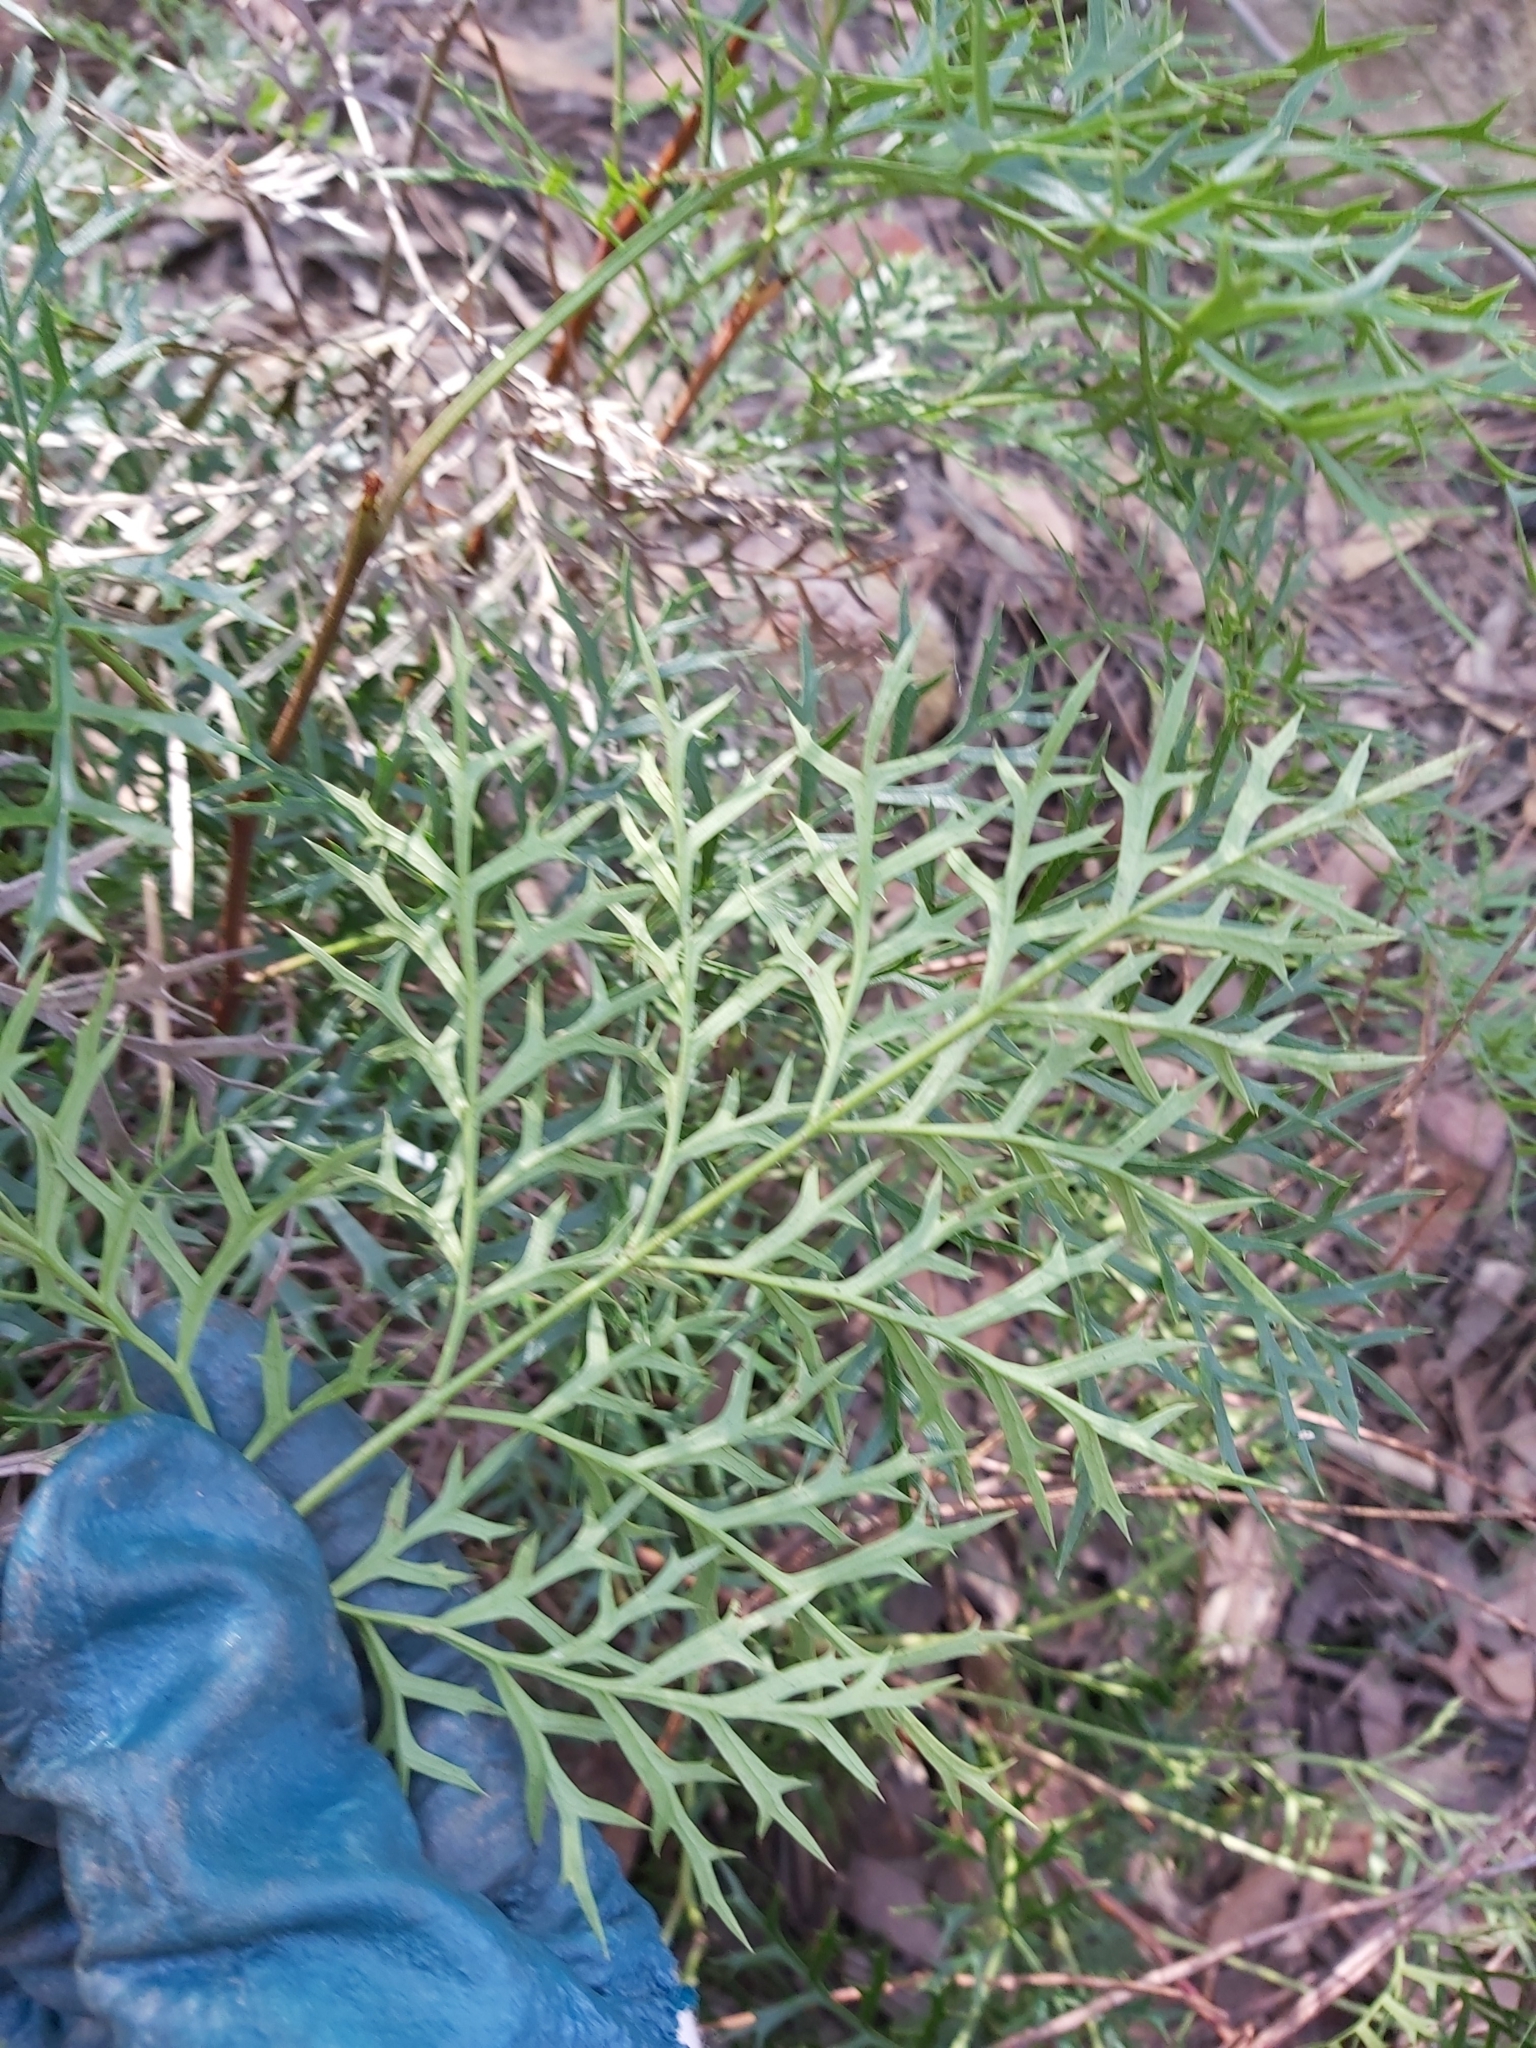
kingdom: Plantae
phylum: Tracheophyta
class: Magnoliopsida
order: Proteales
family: Proteaceae
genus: Lomatia
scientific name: Lomatia silaifolia
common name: Crinklebush
